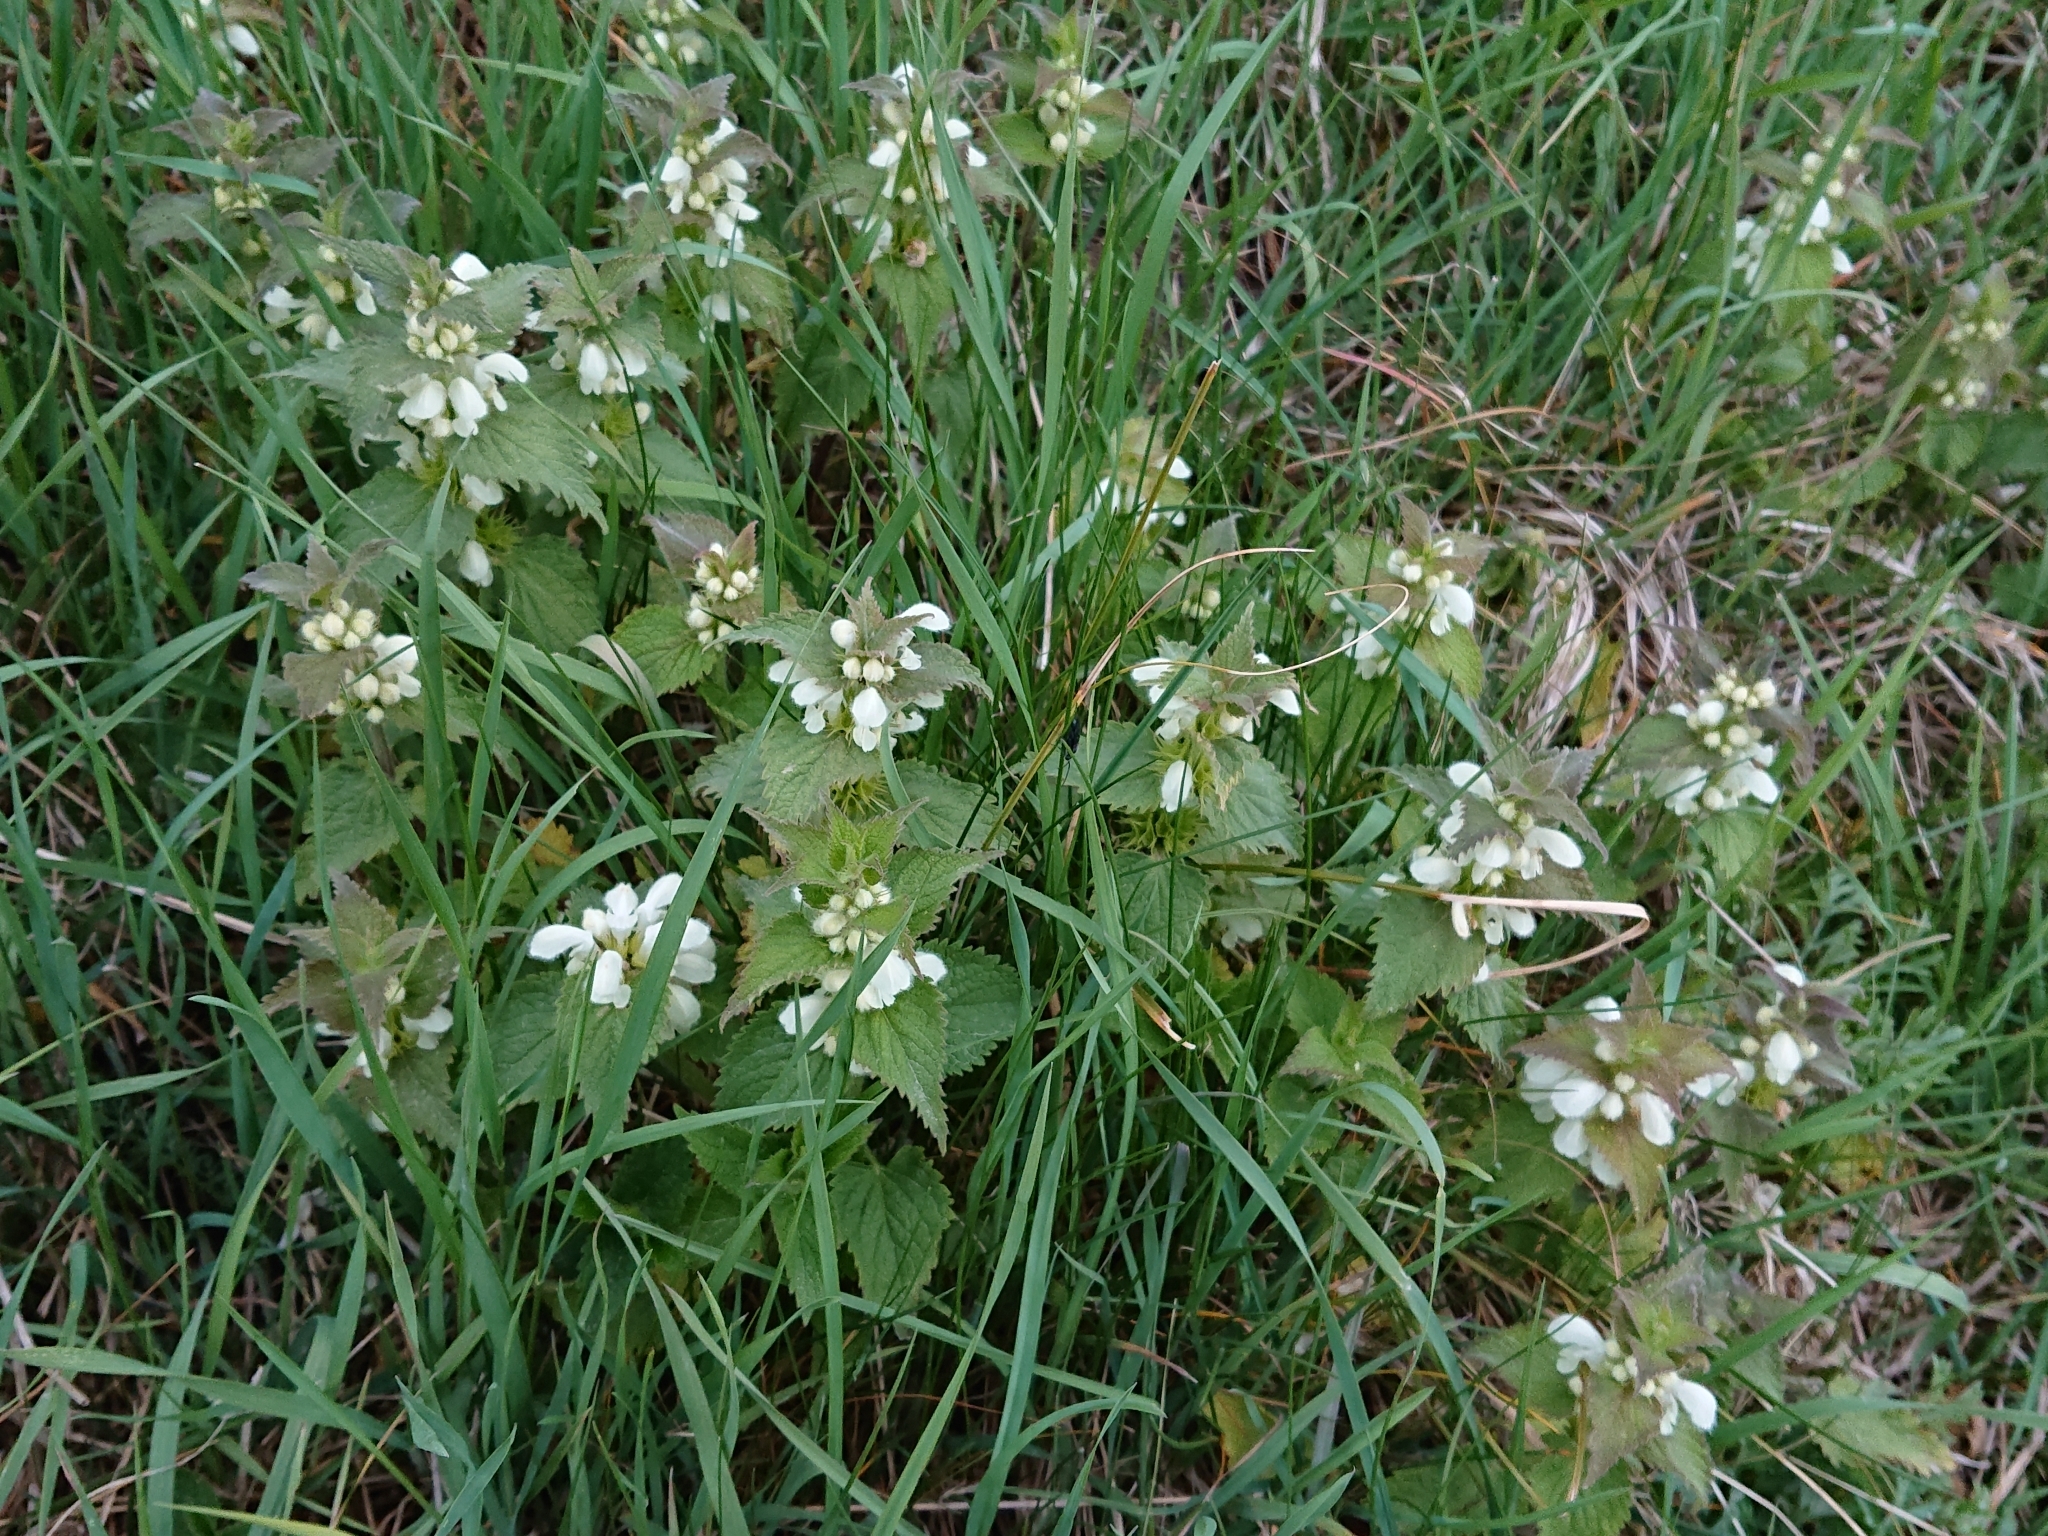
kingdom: Plantae
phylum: Tracheophyta
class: Magnoliopsida
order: Lamiales
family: Lamiaceae
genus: Lamium
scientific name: Lamium album
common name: White dead-nettle
